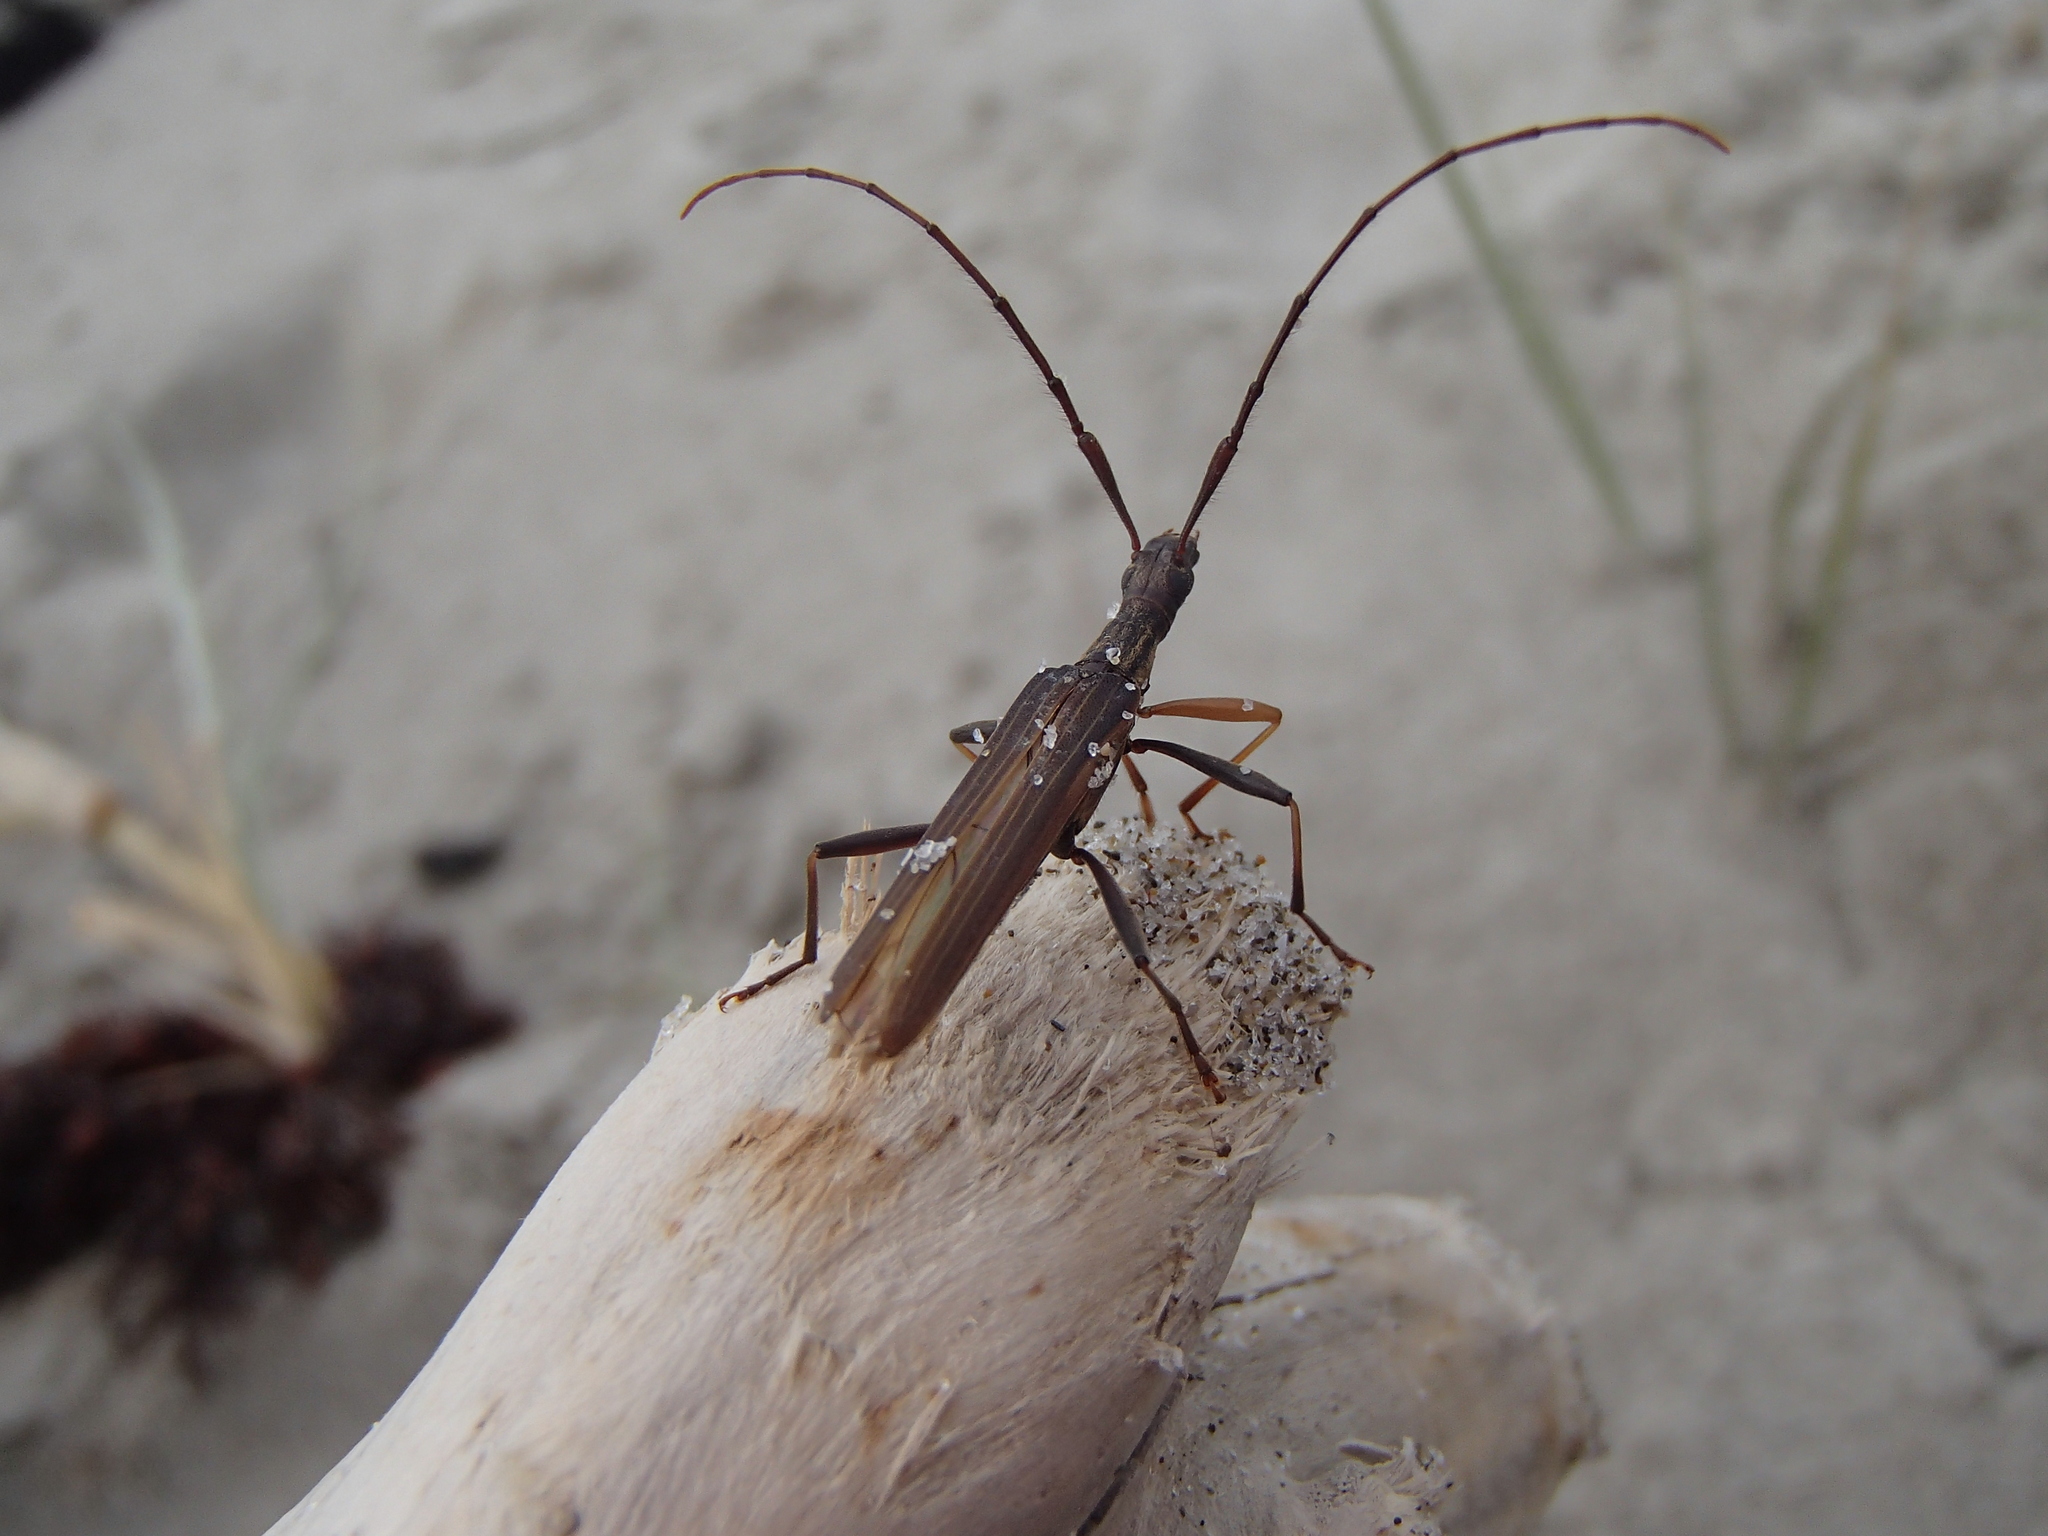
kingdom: Animalia
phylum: Arthropoda
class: Insecta
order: Coleoptera
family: Cerambycidae
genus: Stenopotes
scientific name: Stenopotes pallidus
